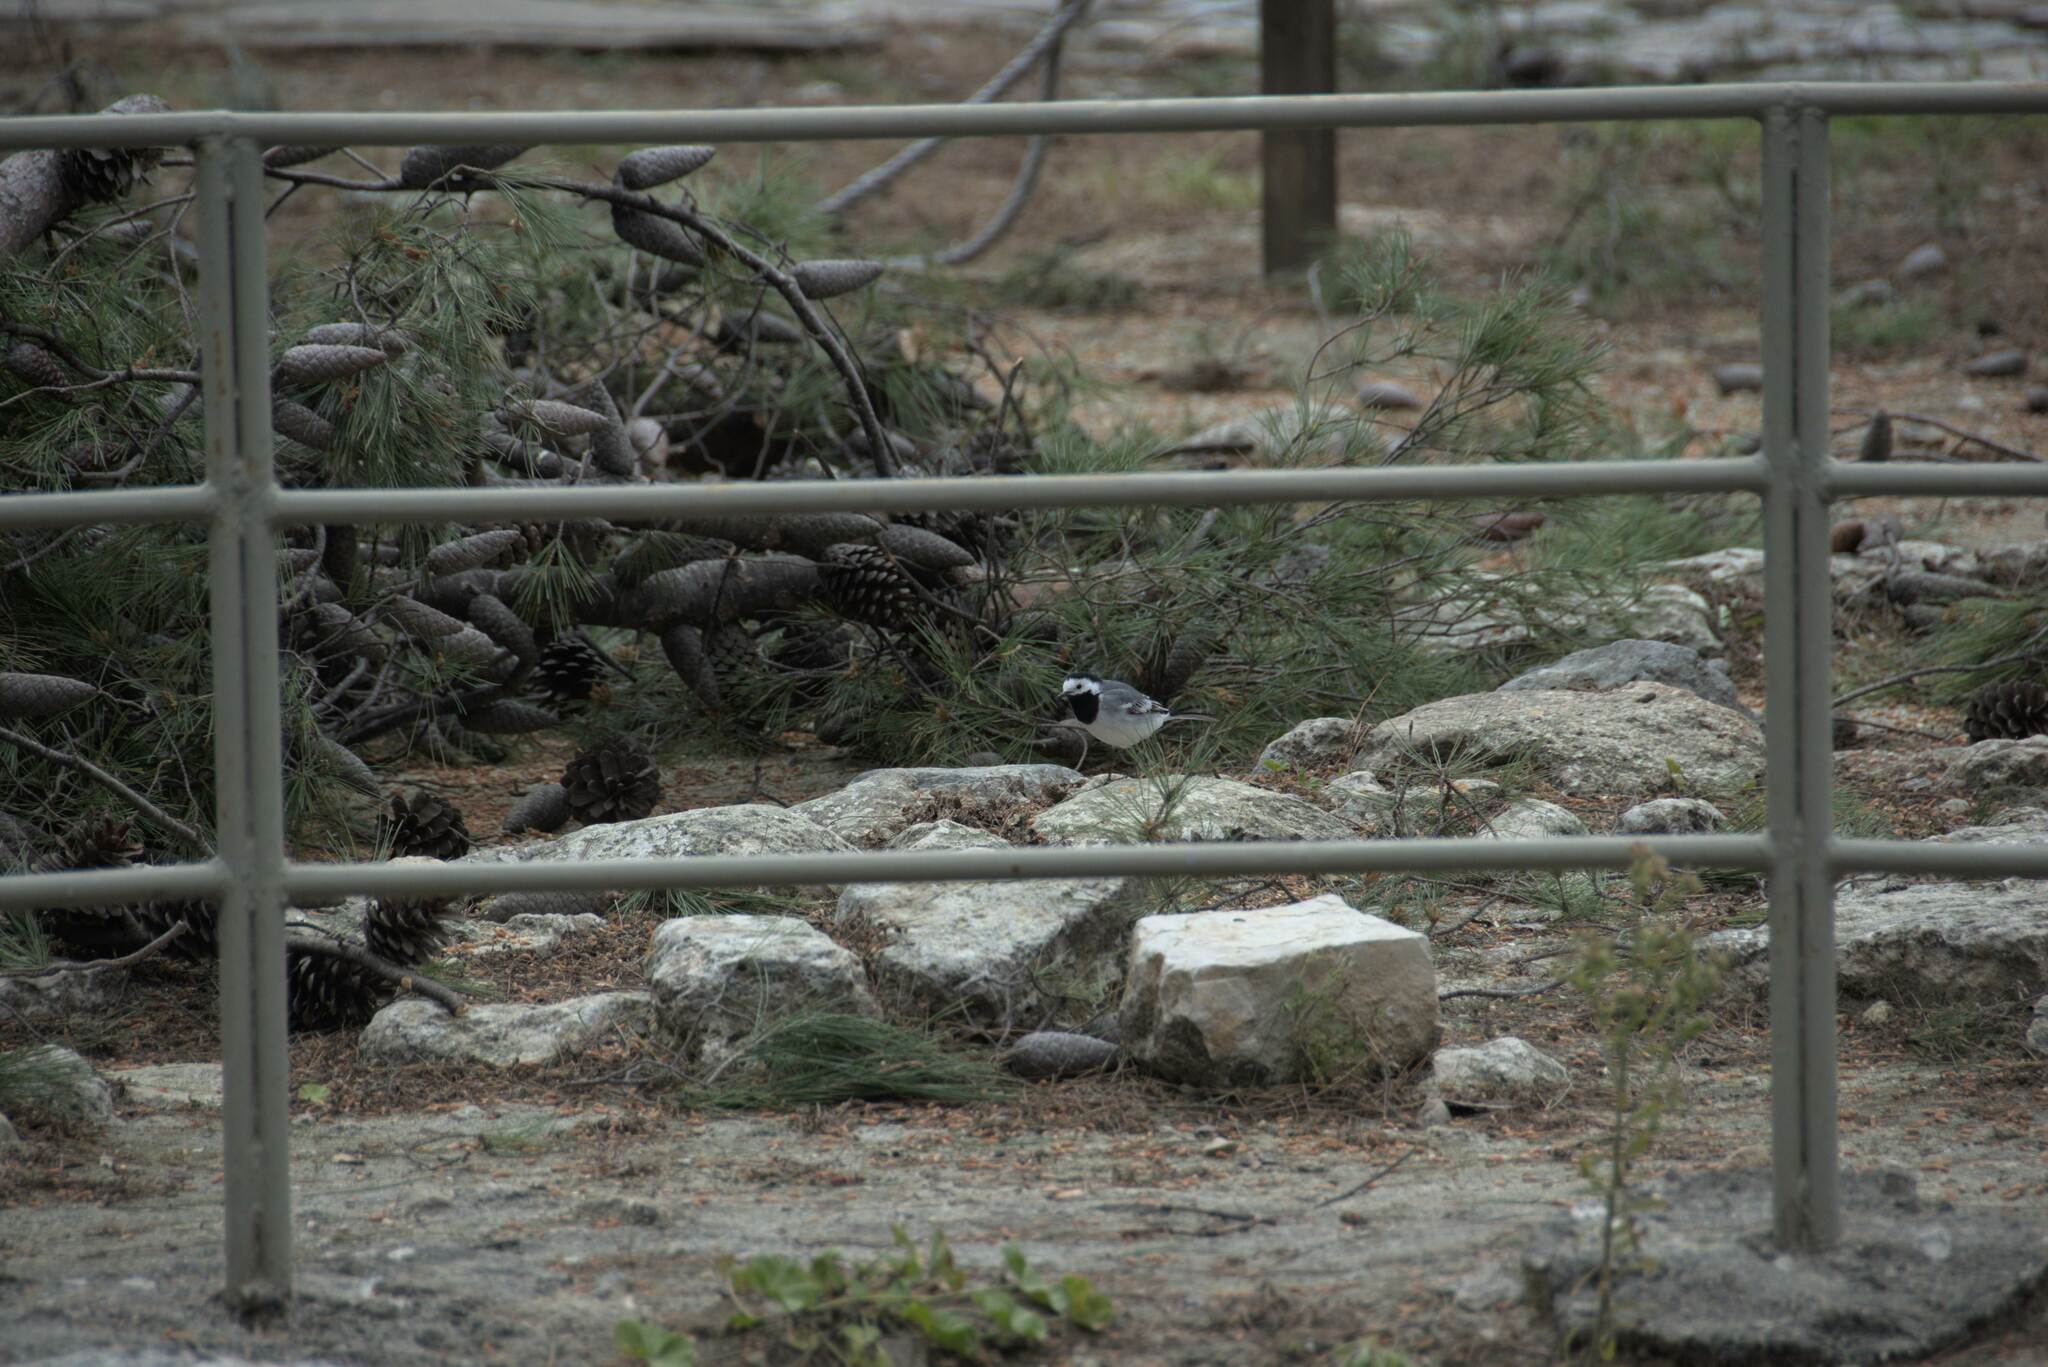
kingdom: Animalia
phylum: Chordata
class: Aves
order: Passeriformes
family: Motacillidae
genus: Motacilla
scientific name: Motacilla alba
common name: White wagtail
